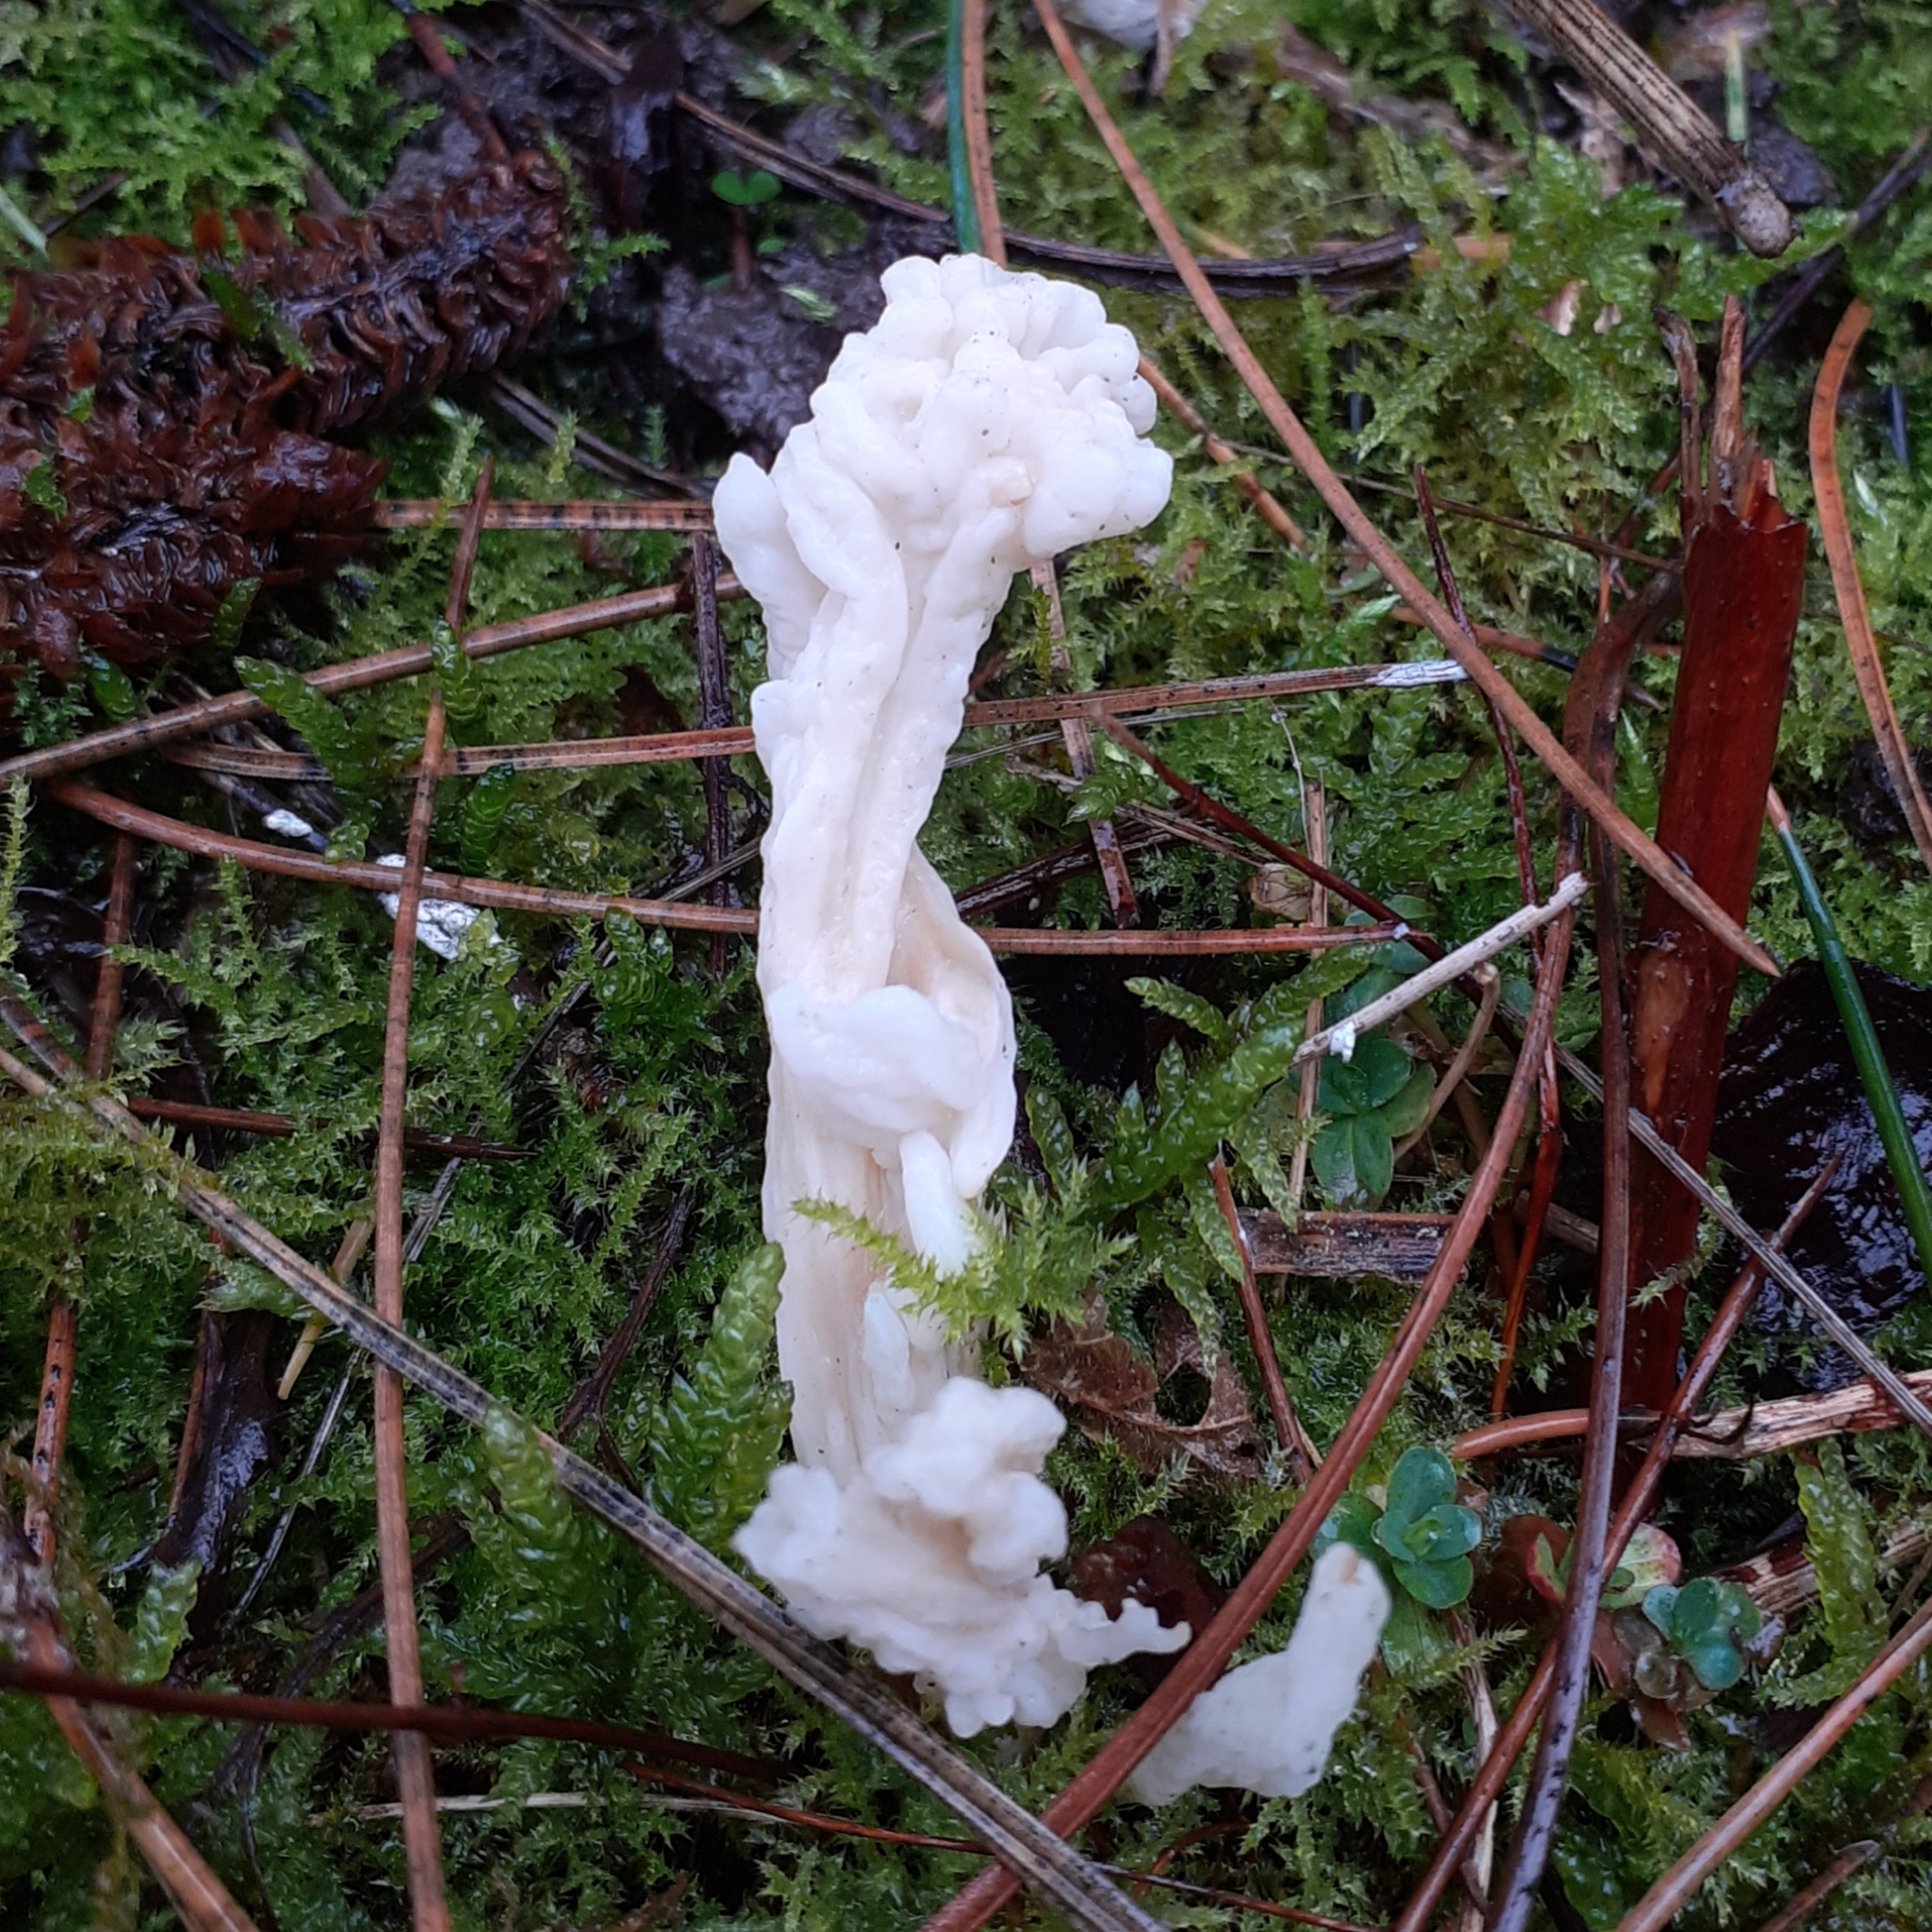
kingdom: Fungi
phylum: Basidiomycota
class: Agaricomycetes
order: Cantharellales
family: Hydnaceae
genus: Clavulina
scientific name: Clavulina rugosa
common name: Wrinkled club
